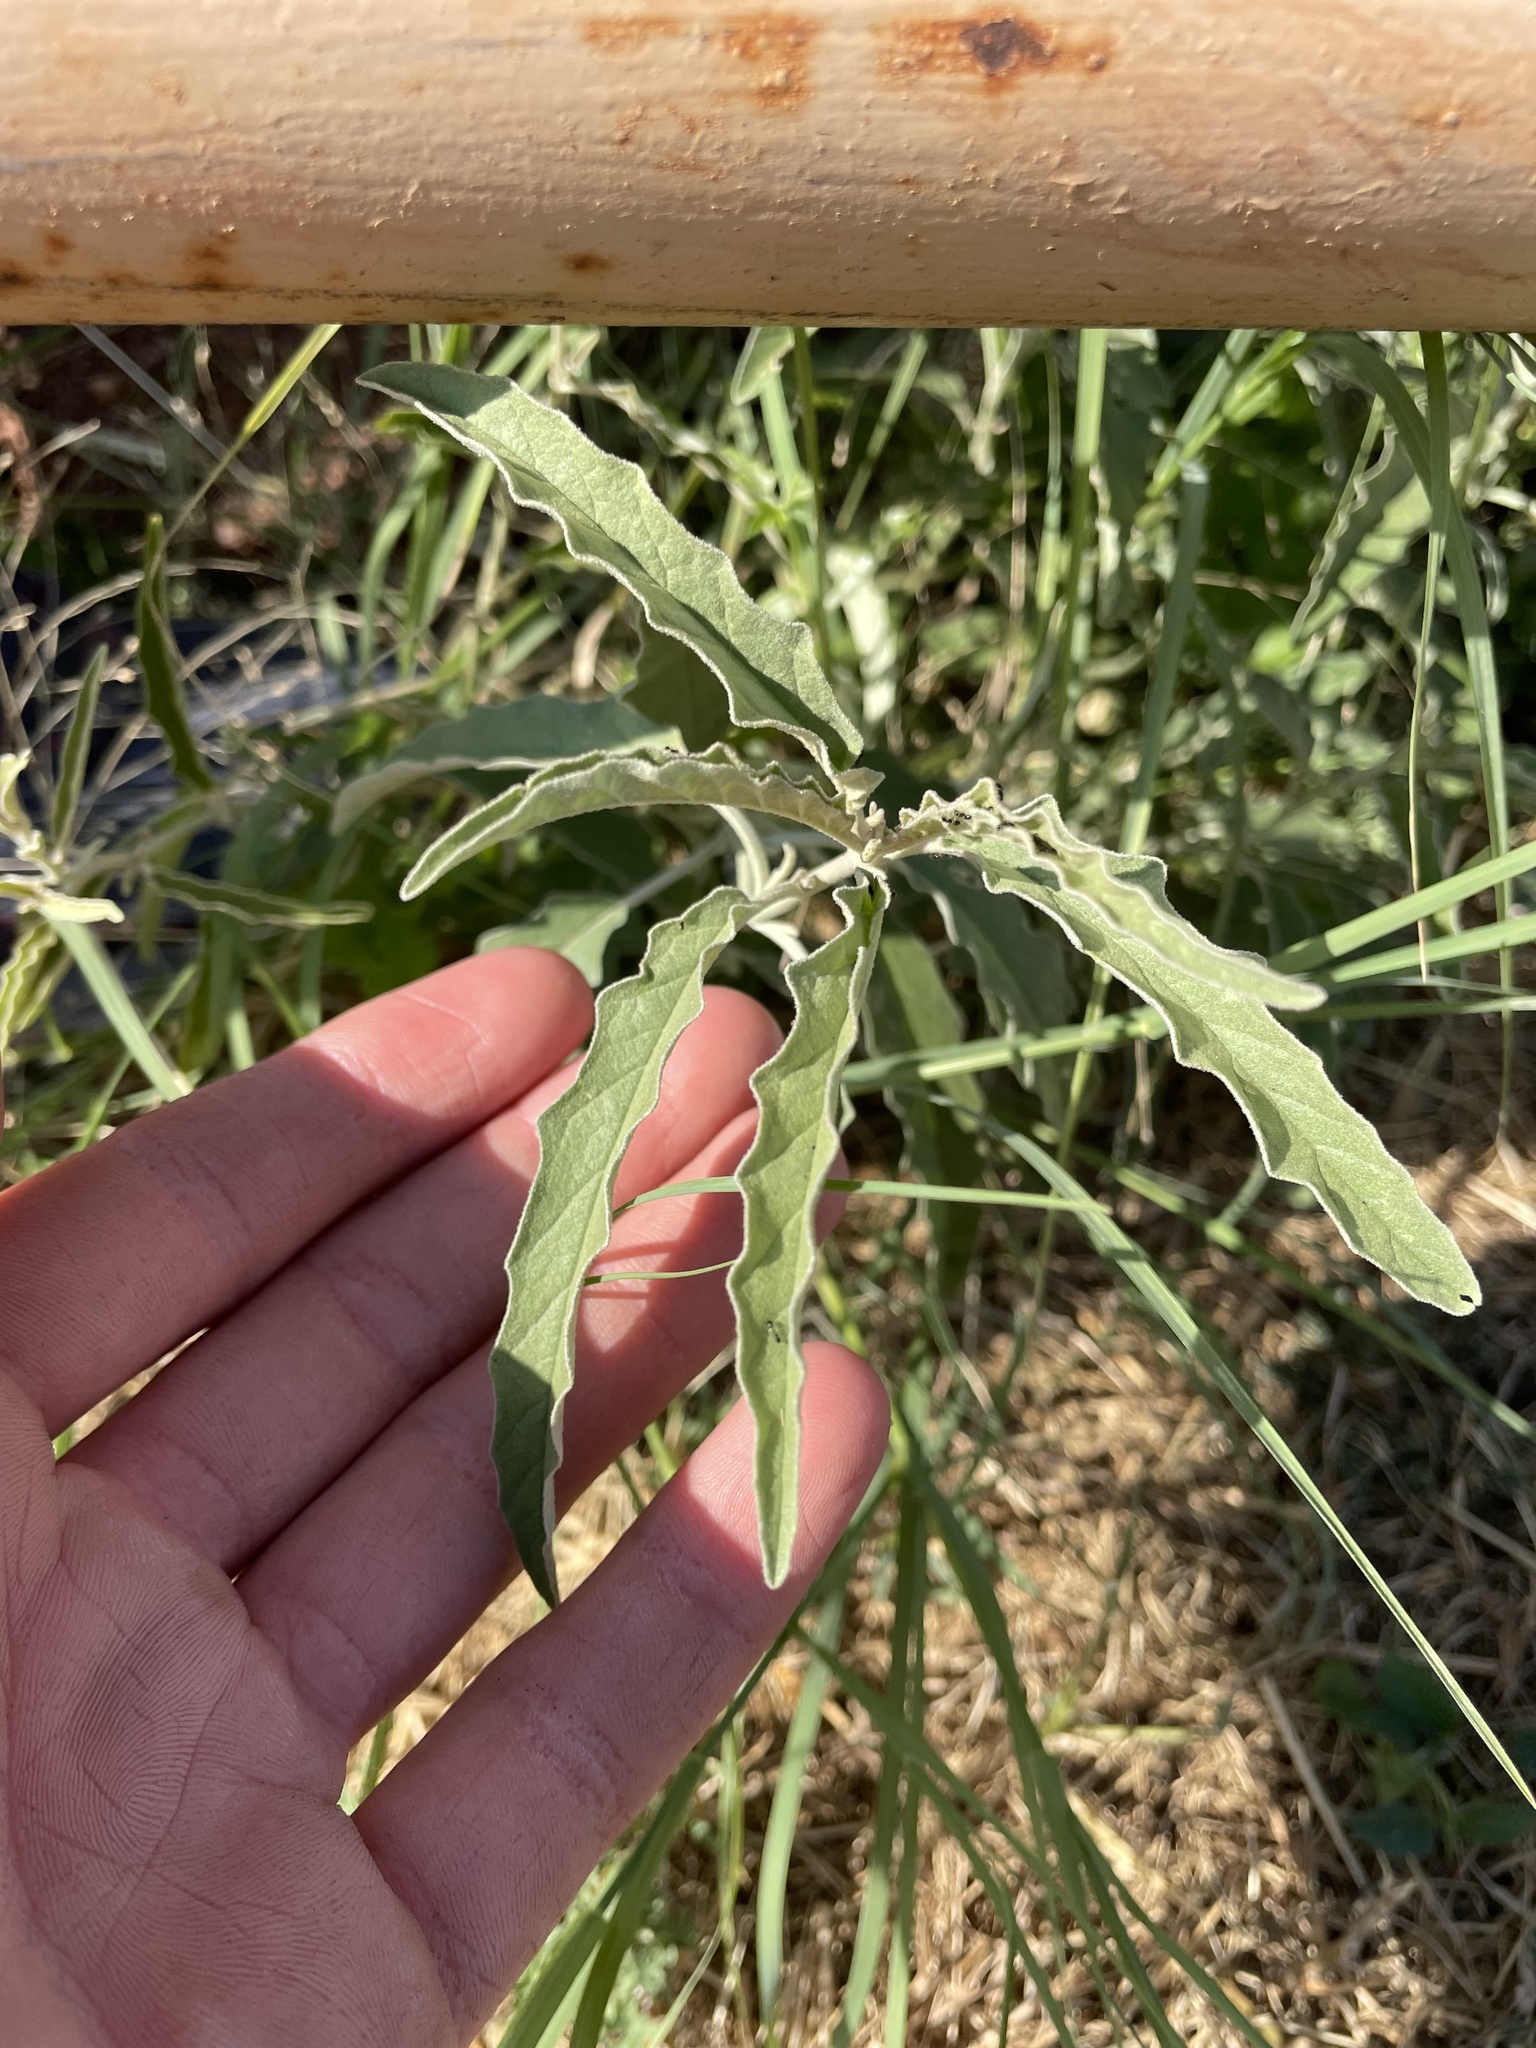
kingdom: Plantae
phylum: Tracheophyta
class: Magnoliopsida
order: Solanales
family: Solanaceae
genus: Solanum
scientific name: Solanum elaeagnifolium
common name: Silverleaf nightshade
